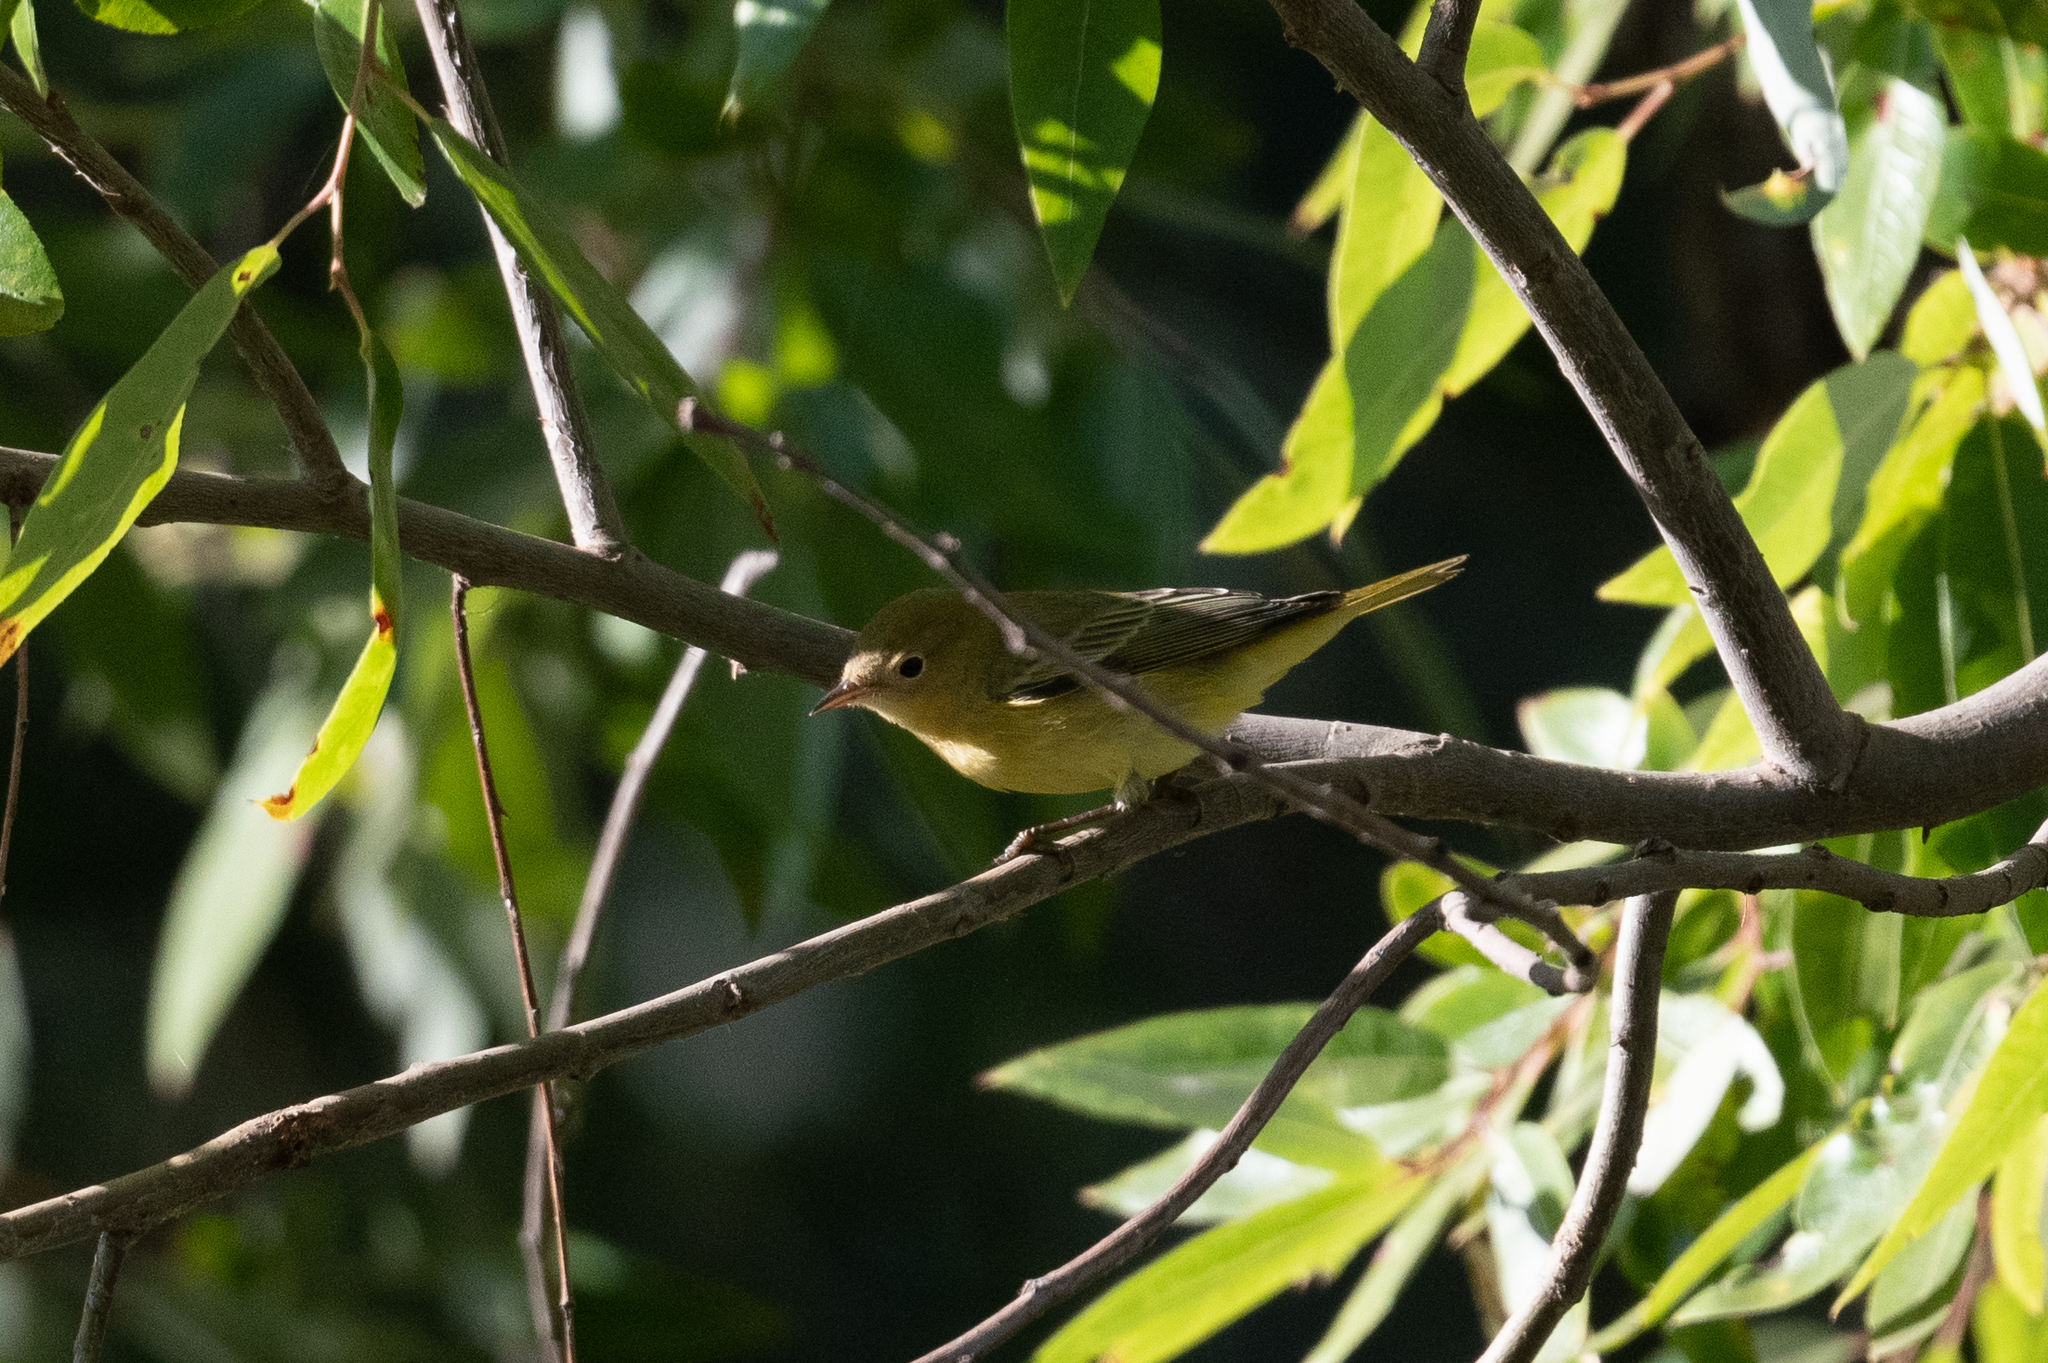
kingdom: Animalia
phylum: Chordata
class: Aves
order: Passeriformes
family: Parulidae
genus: Setophaga
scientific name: Setophaga petechia
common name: Yellow warbler
